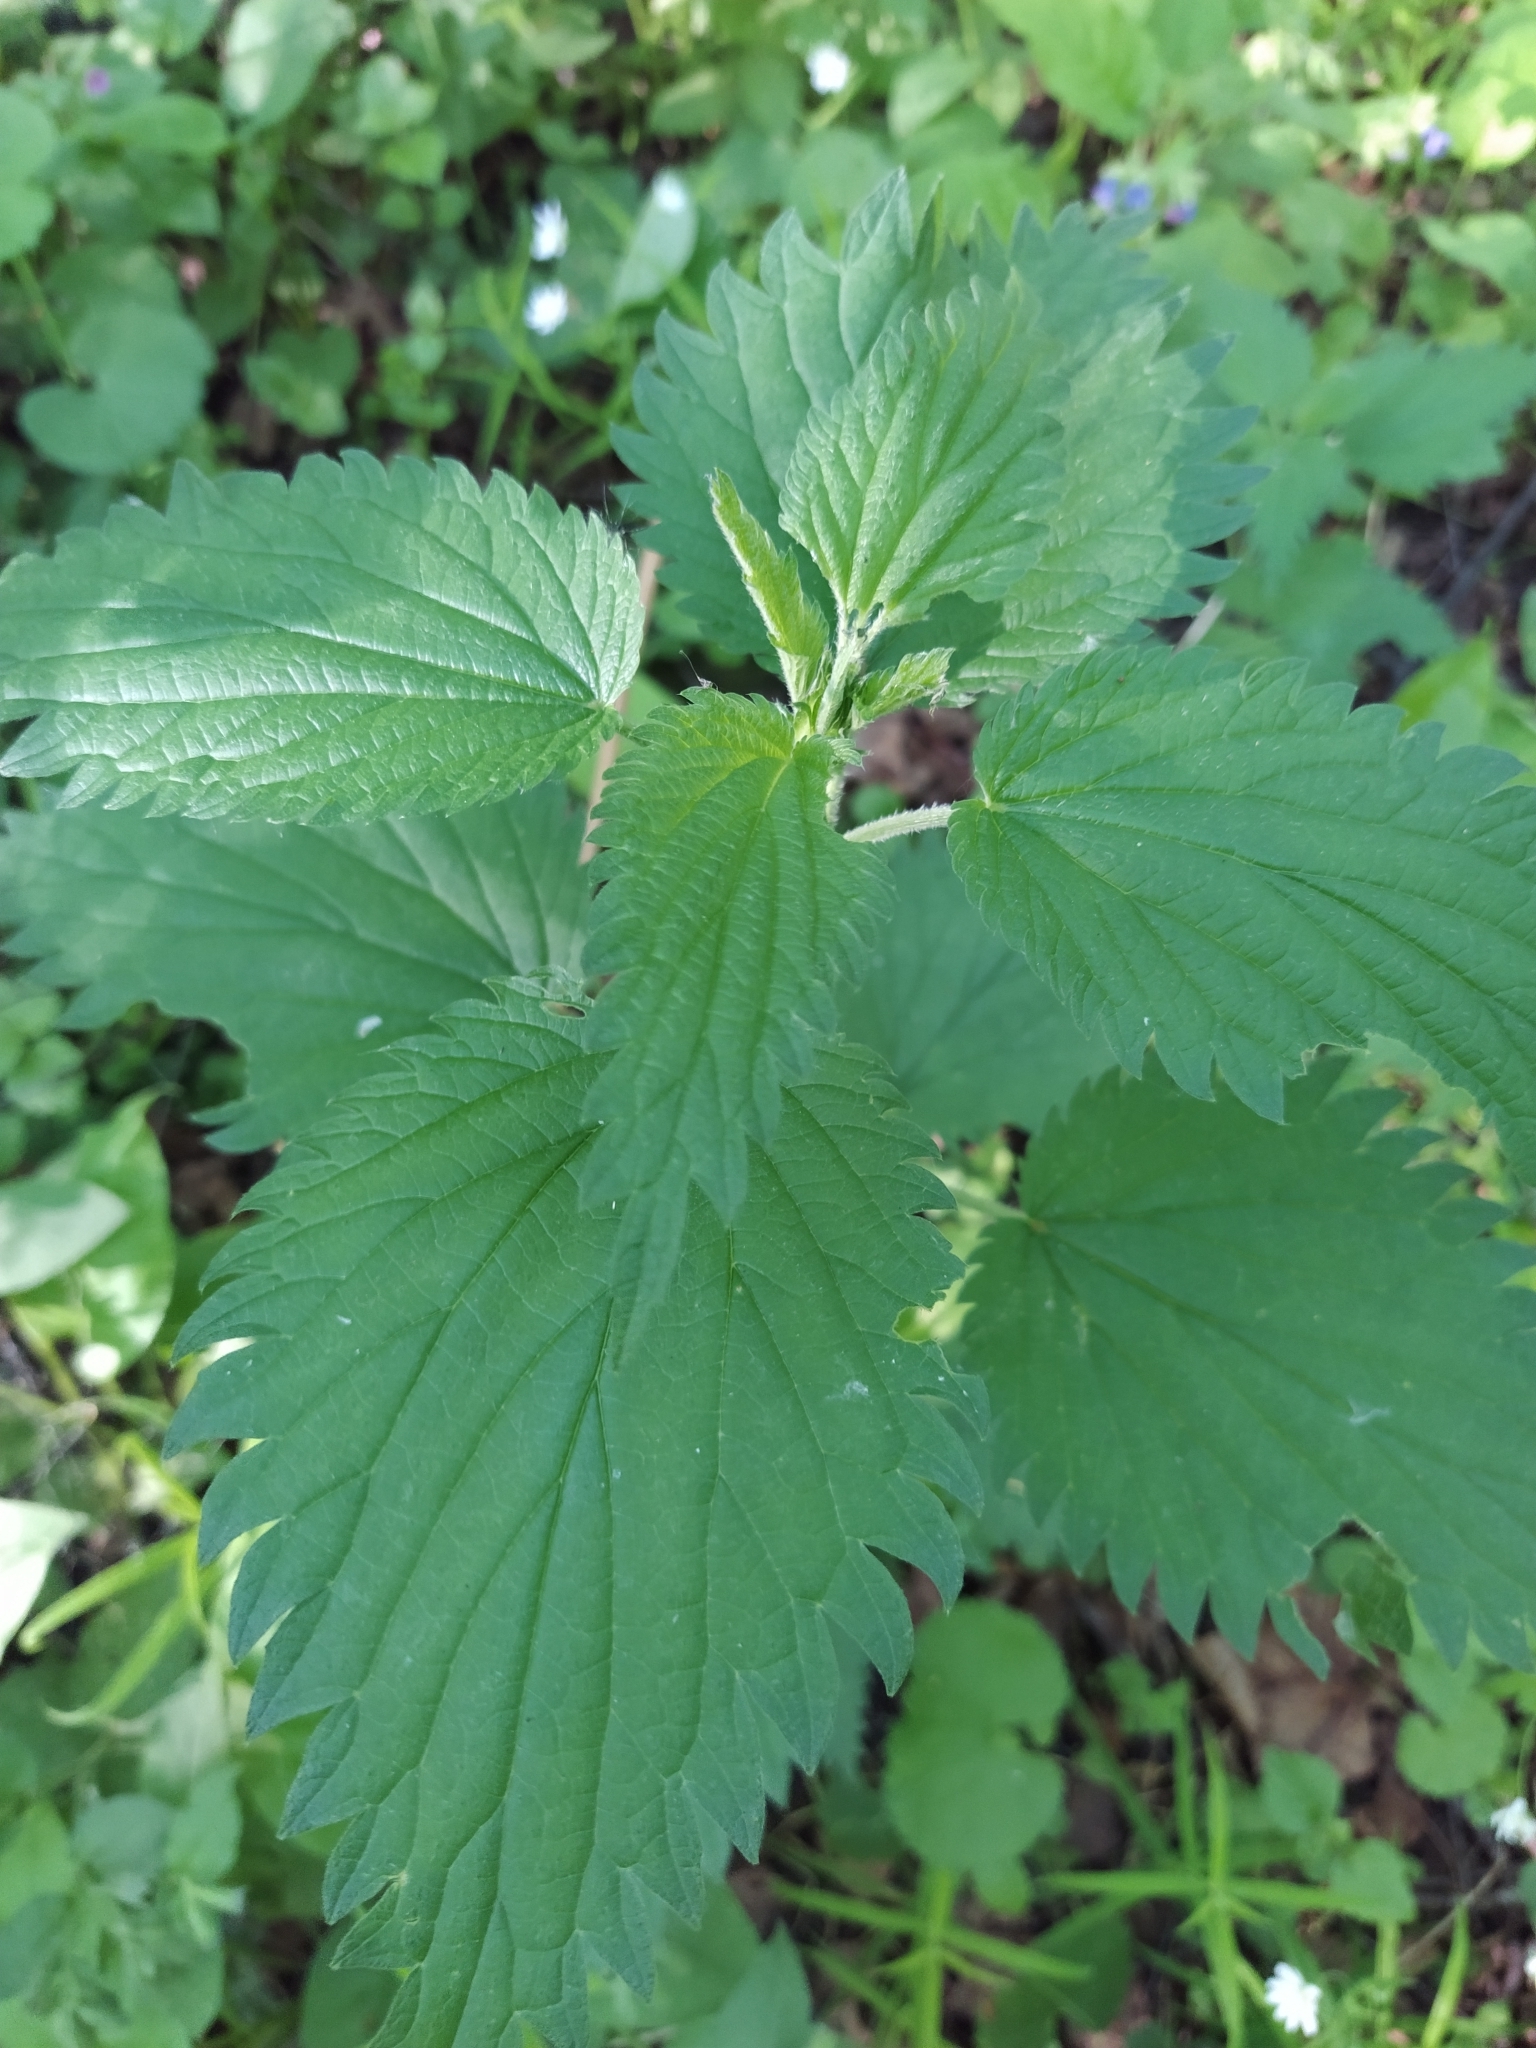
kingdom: Plantae
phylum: Tracheophyta
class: Magnoliopsida
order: Rosales
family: Urticaceae
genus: Urtica
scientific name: Urtica dioica
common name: Common nettle
